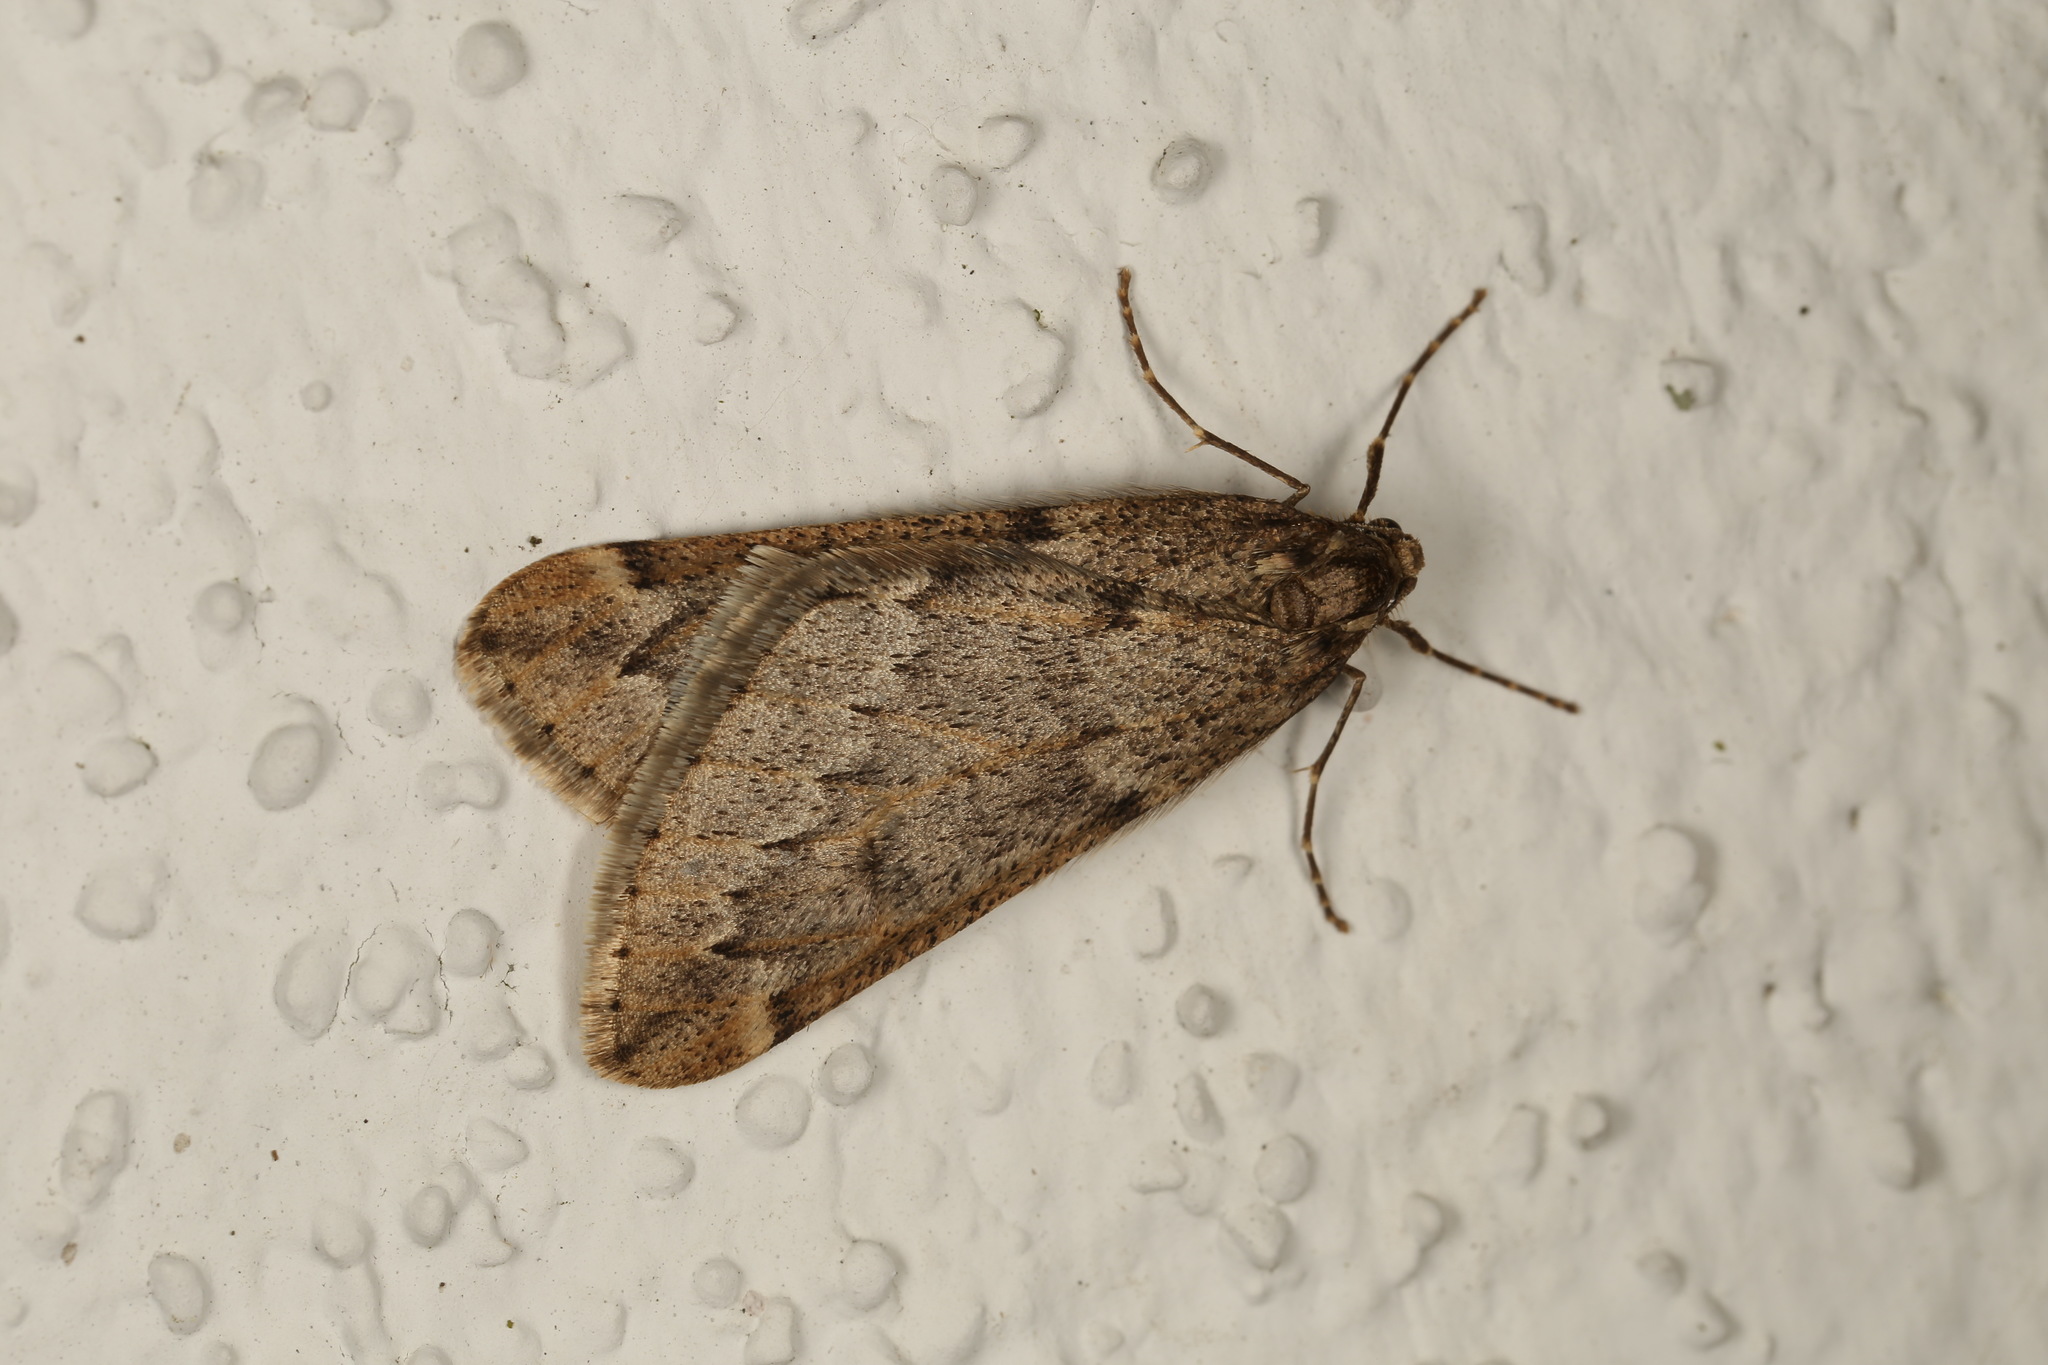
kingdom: Animalia
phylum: Arthropoda
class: Insecta
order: Lepidoptera
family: Geometridae
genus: Alsophila
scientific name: Alsophila aescularia
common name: March moth
